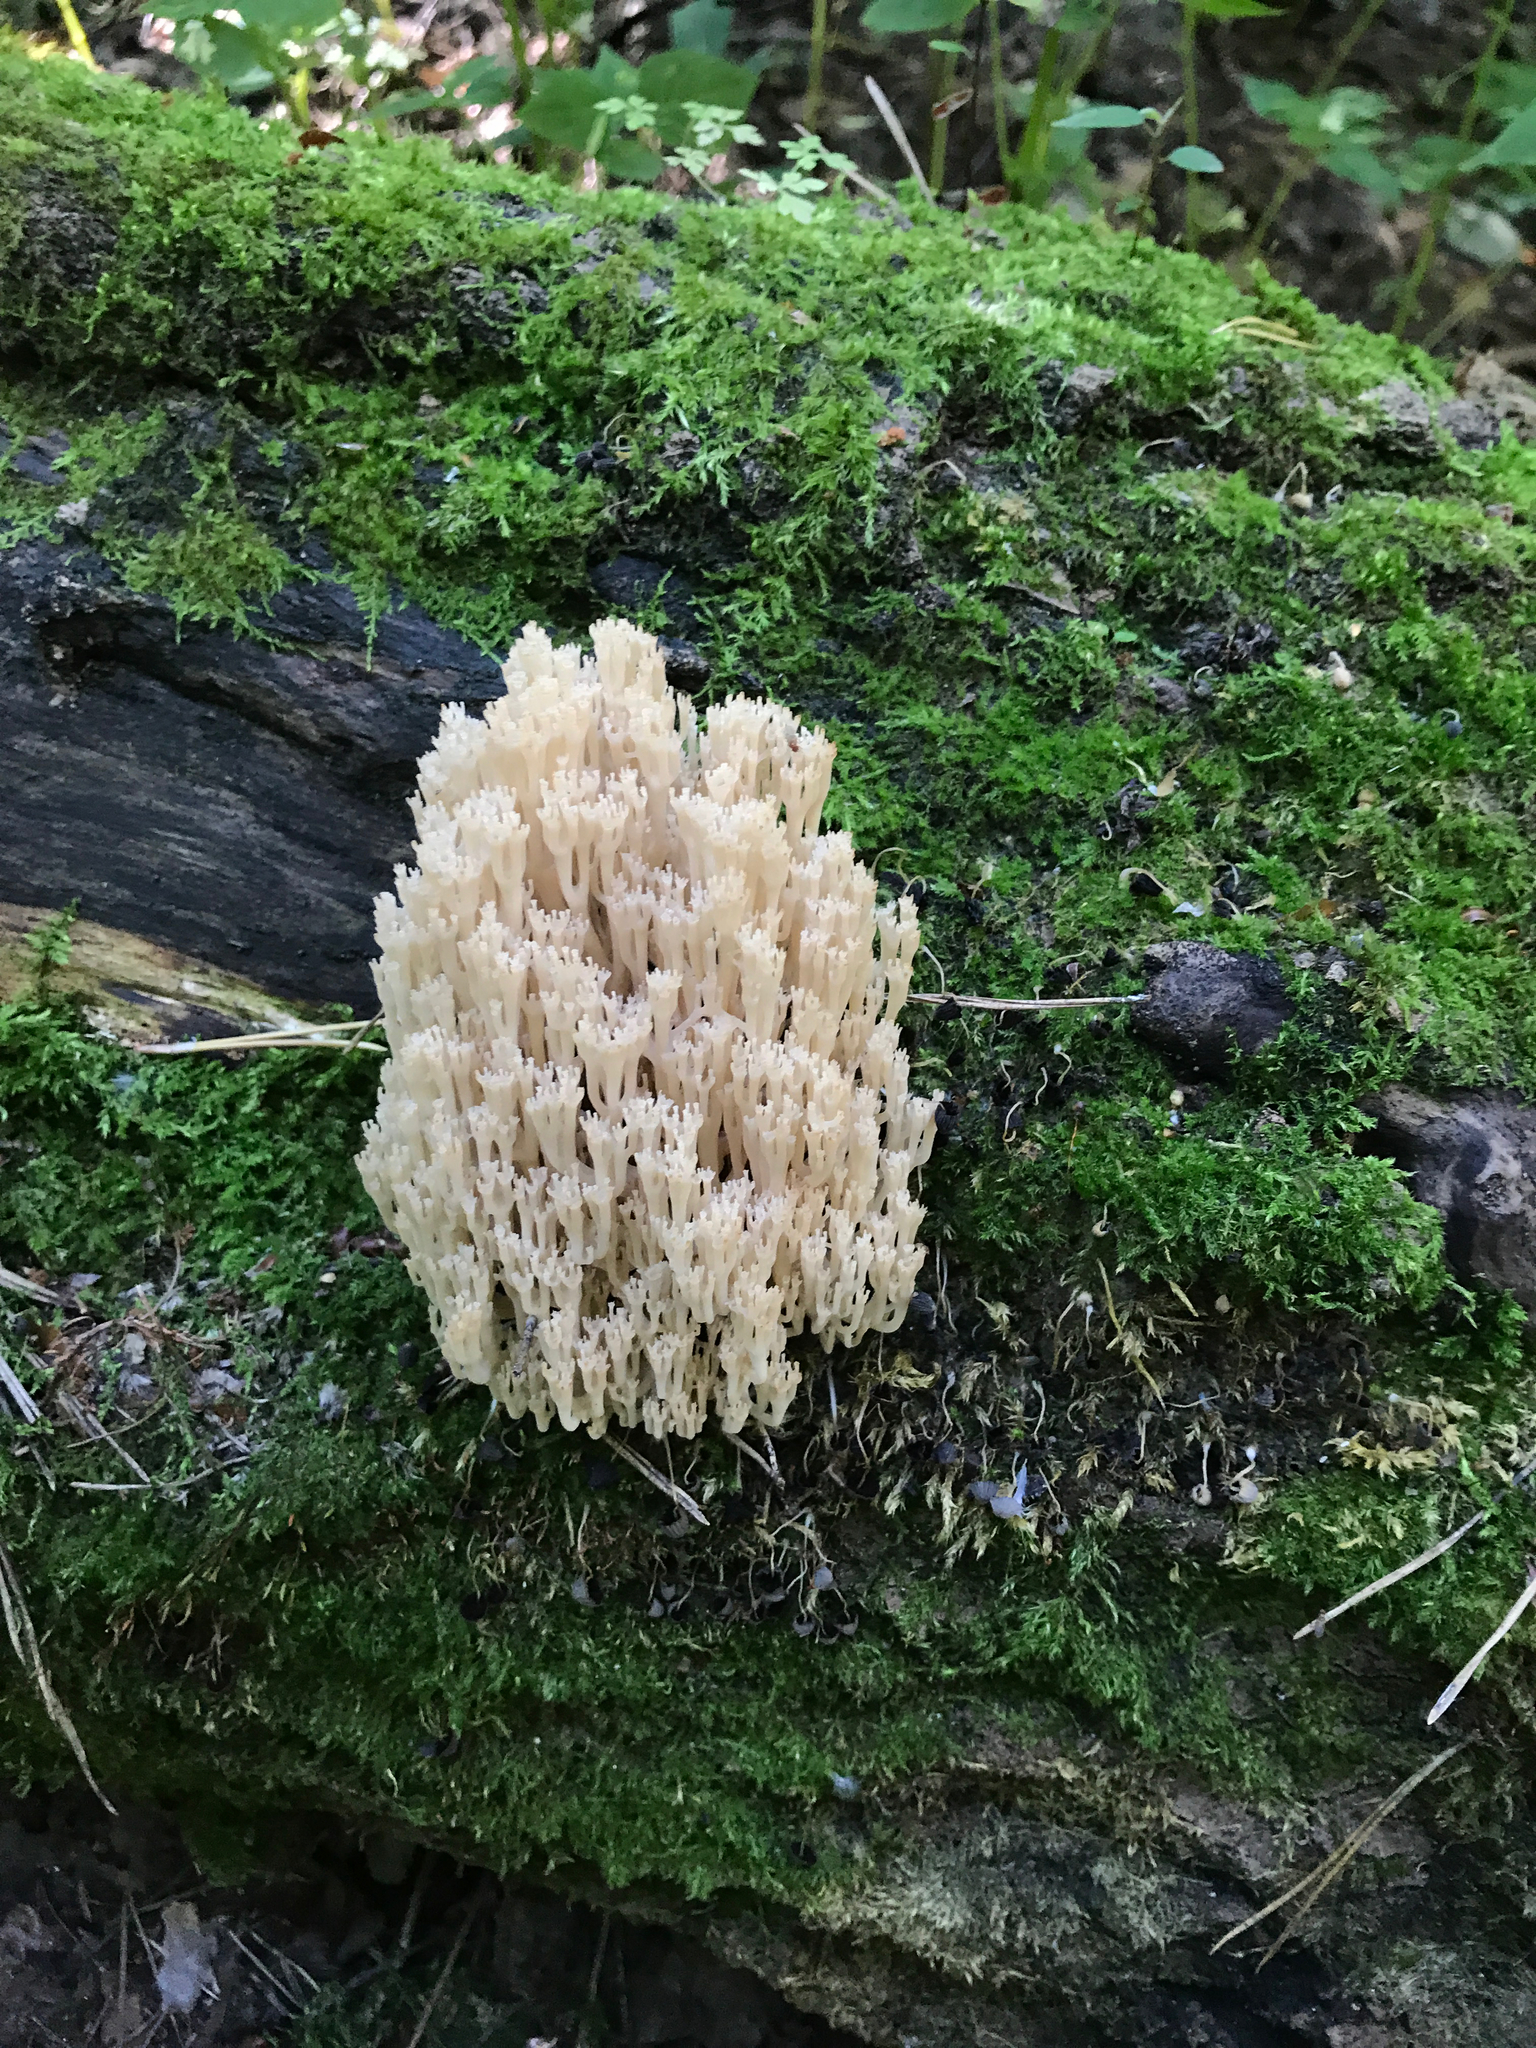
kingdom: Fungi
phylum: Basidiomycota
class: Agaricomycetes
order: Russulales
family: Auriscalpiaceae
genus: Artomyces
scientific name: Artomyces pyxidatus
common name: Crown-tipped coral fungus
